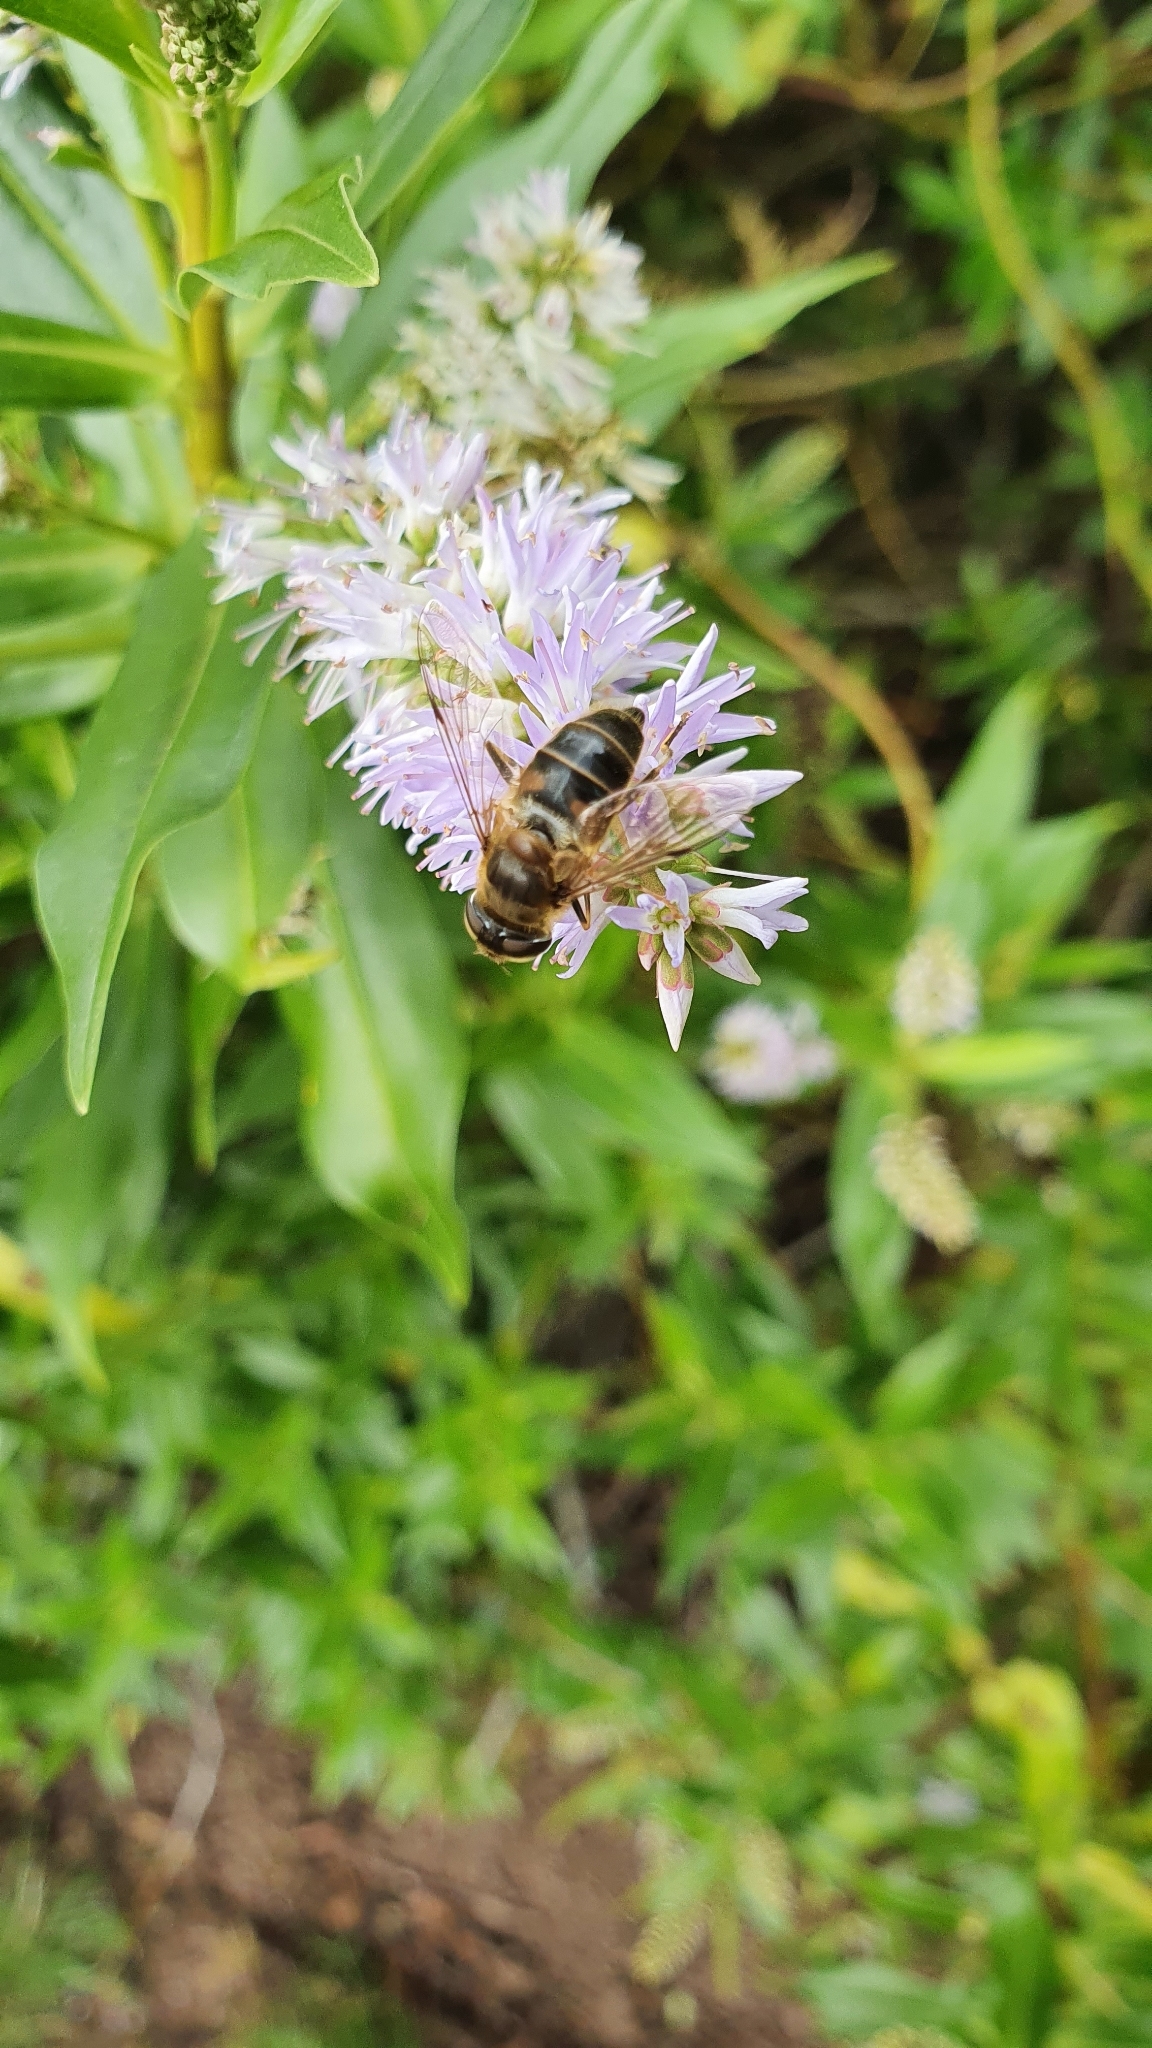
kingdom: Animalia
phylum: Arthropoda
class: Insecta
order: Diptera
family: Syrphidae
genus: Eristalis
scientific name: Eristalis pertinax
